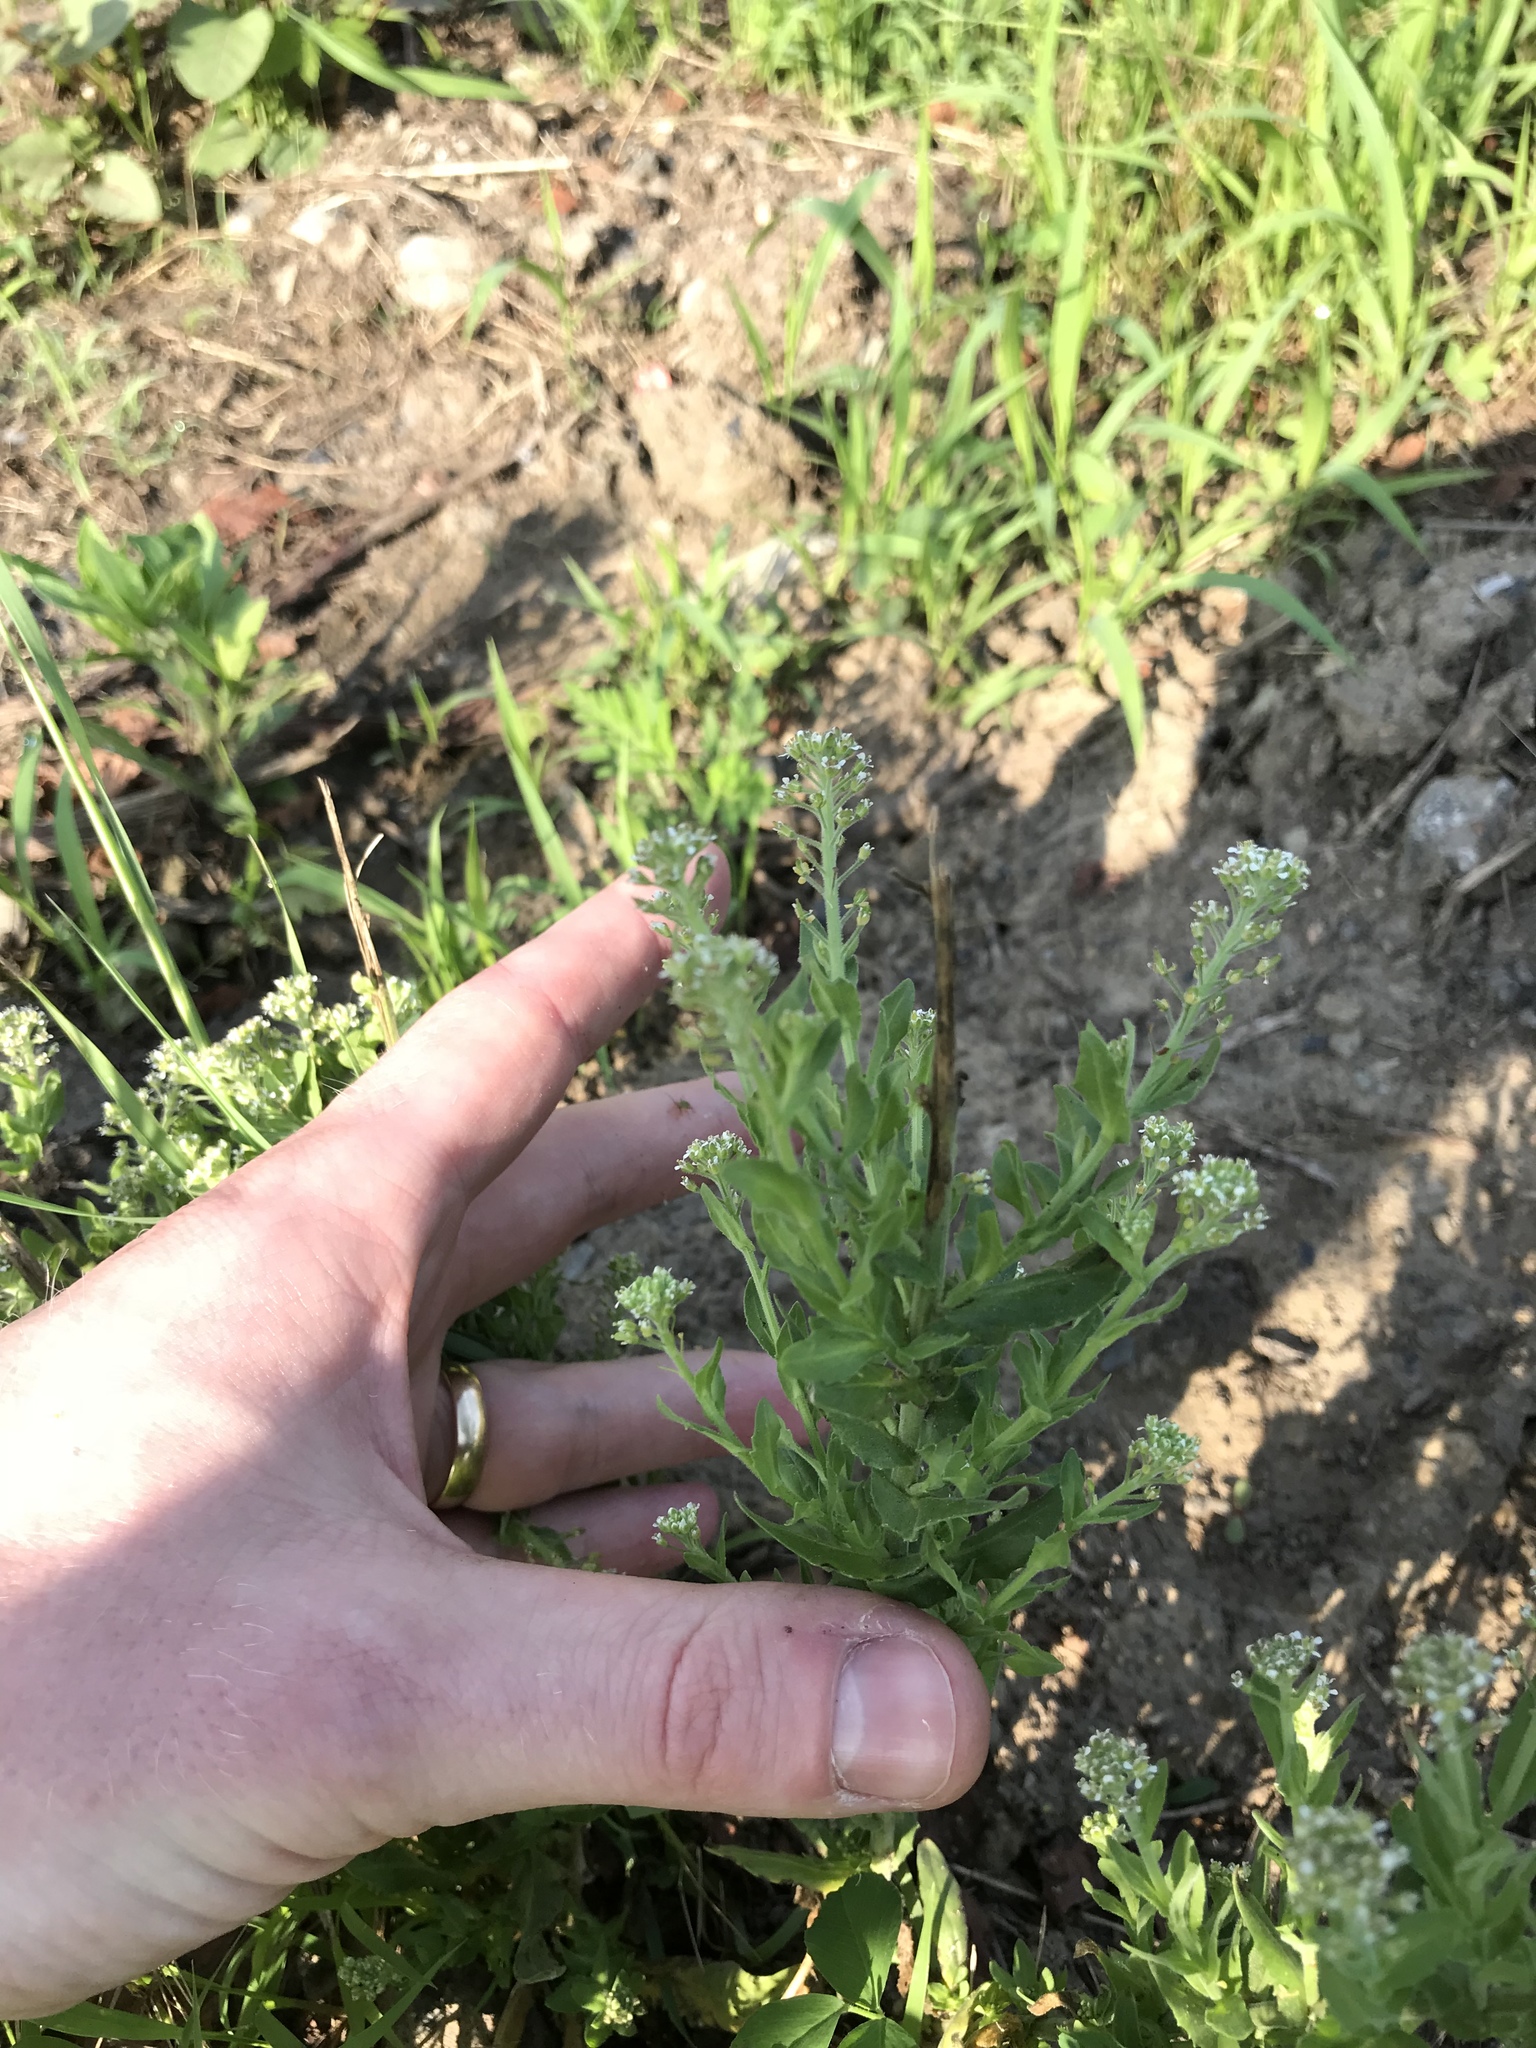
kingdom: Plantae
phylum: Tracheophyta
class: Magnoliopsida
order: Brassicales
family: Brassicaceae
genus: Lepidium
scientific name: Lepidium campestre
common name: Field pepperwort
